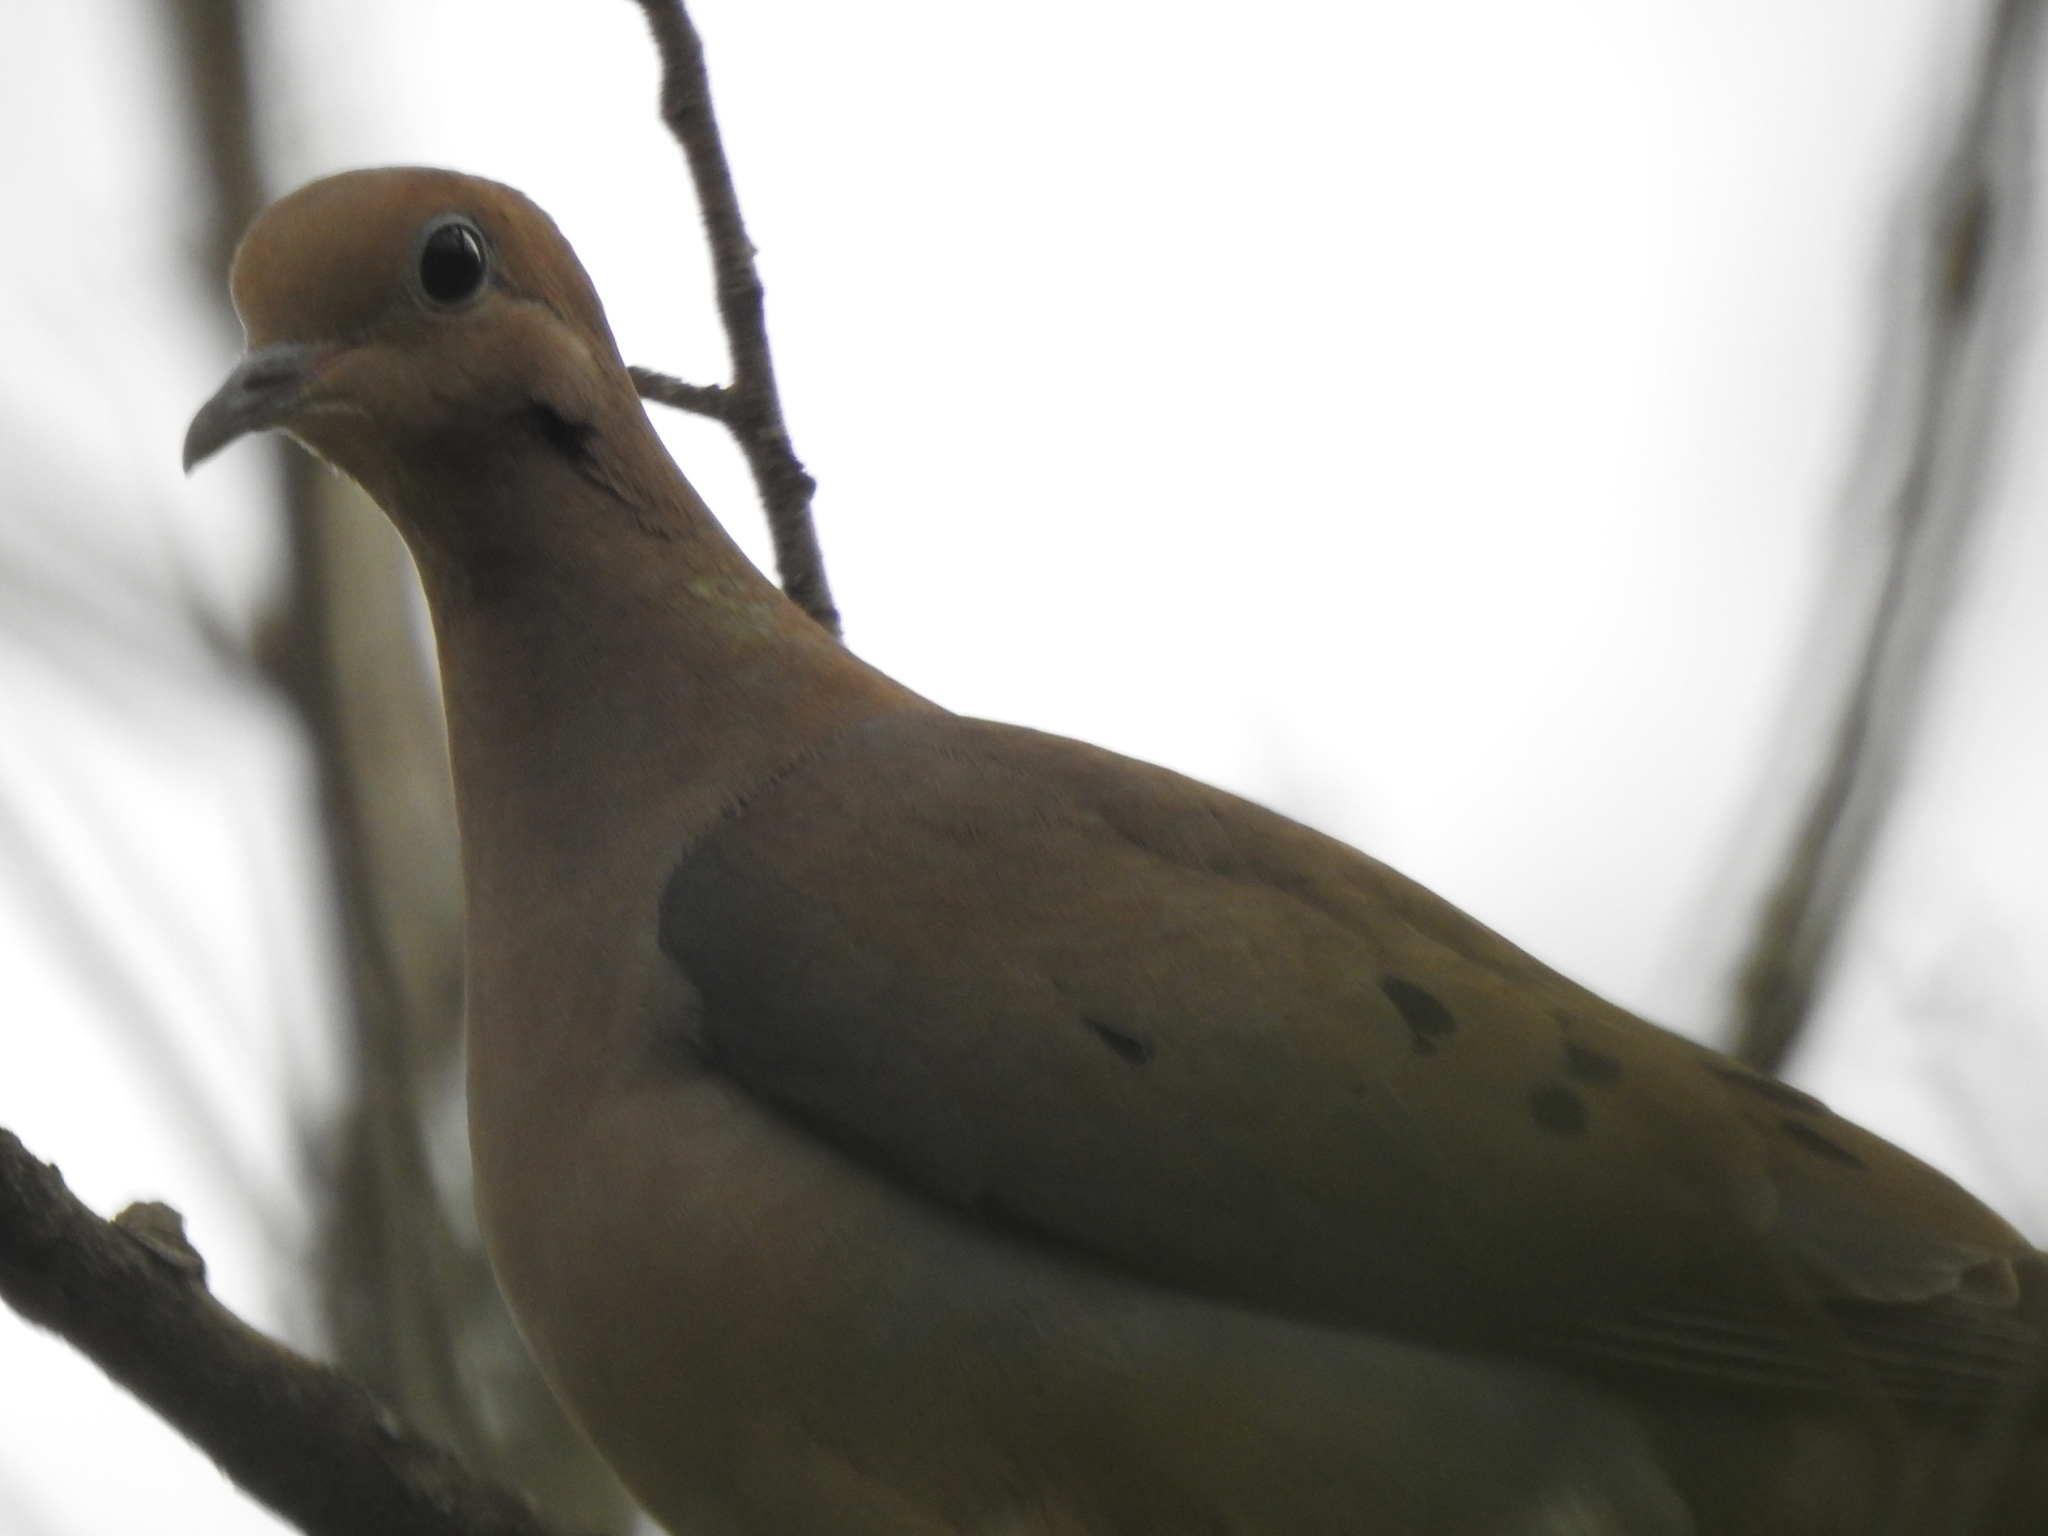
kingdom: Animalia
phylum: Chordata
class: Aves
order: Columbiformes
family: Columbidae
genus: Zenaida
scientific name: Zenaida macroura
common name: Mourning dove
